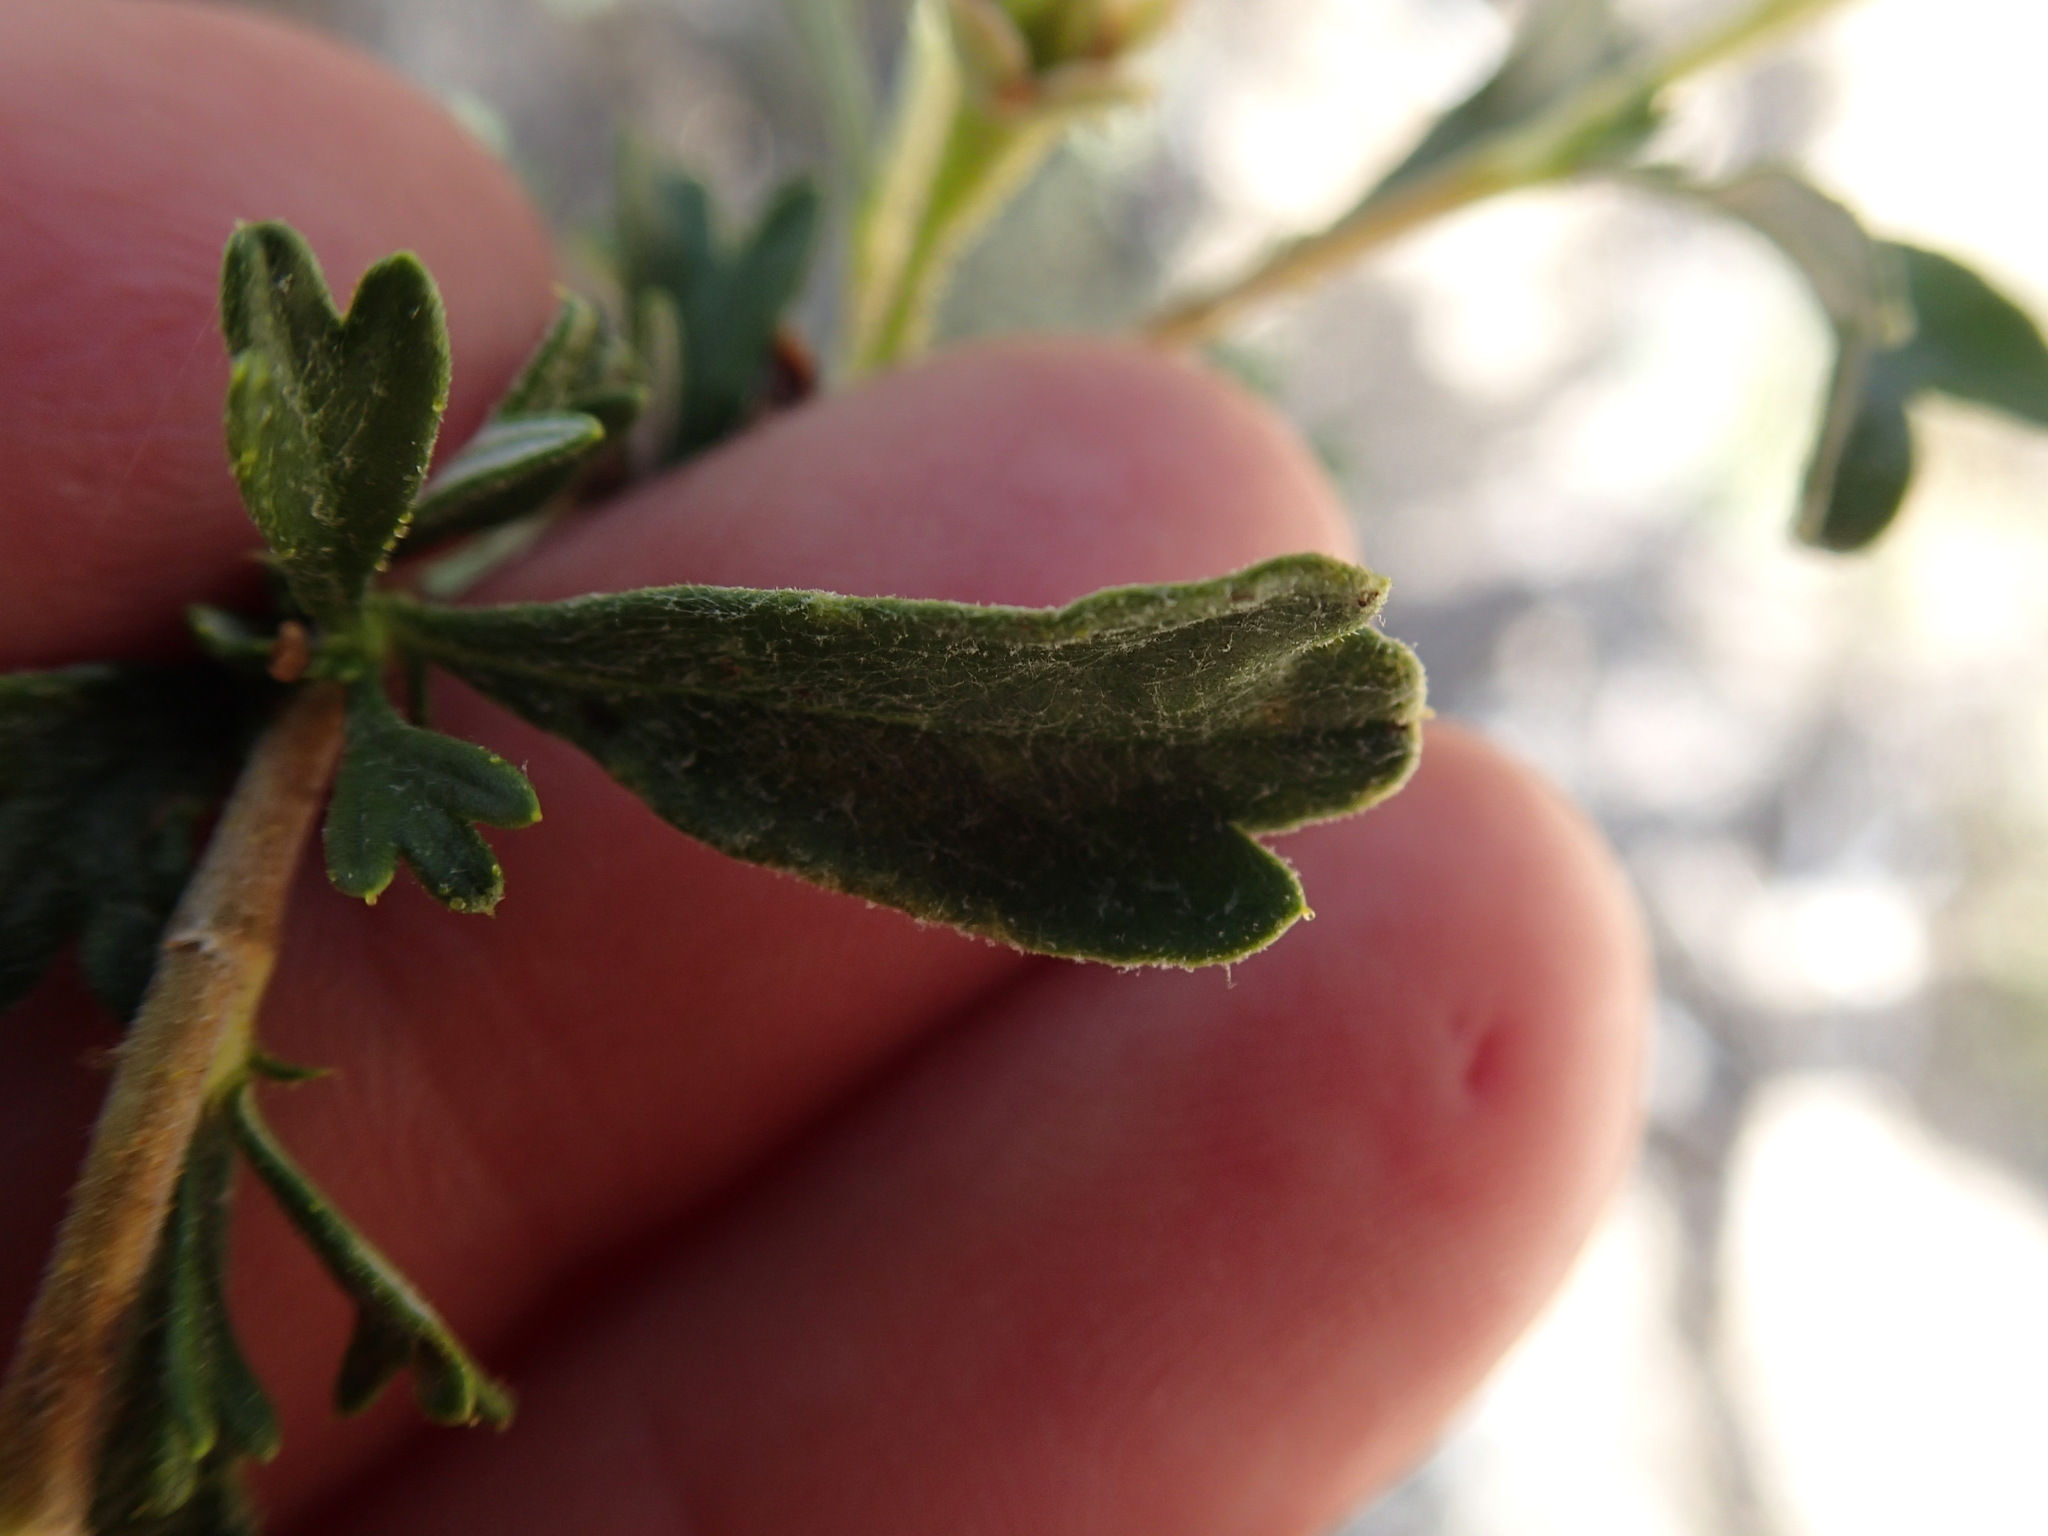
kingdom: Plantae
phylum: Tracheophyta
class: Magnoliopsida
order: Rosales
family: Rosaceae
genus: Purshia
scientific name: Purshia tridentata
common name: Antelope bitterbrush
